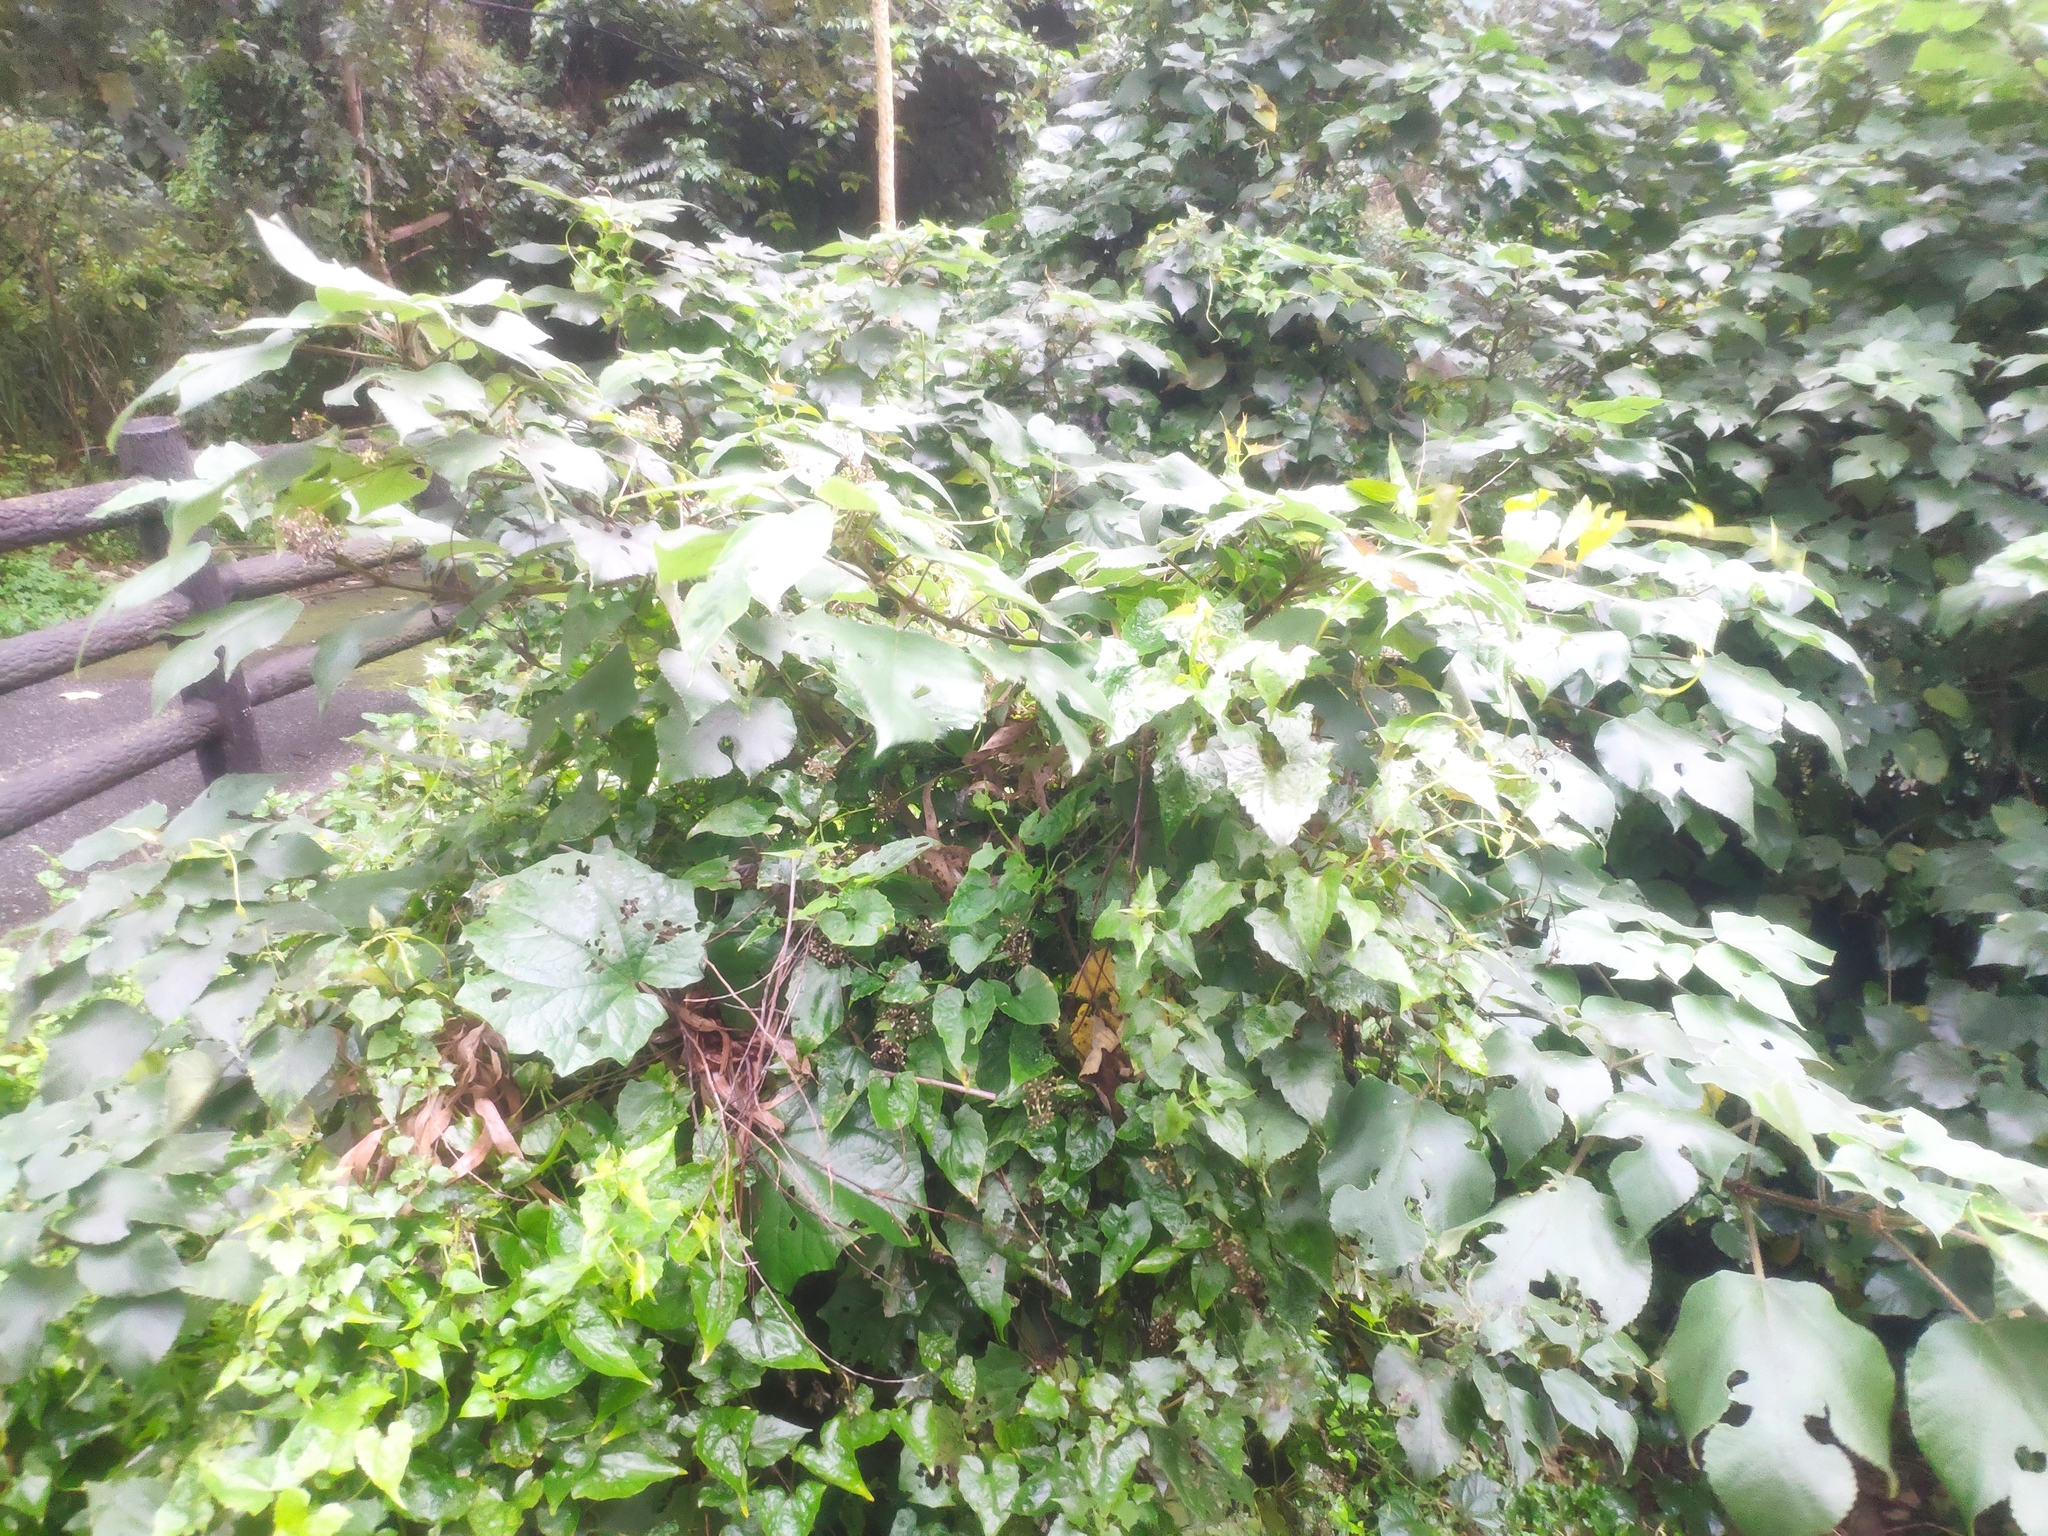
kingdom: Plantae
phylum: Tracheophyta
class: Magnoliopsida
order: Rosales
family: Moraceae
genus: Broussonetia
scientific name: Broussonetia papyrifera
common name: Paper mulberry
